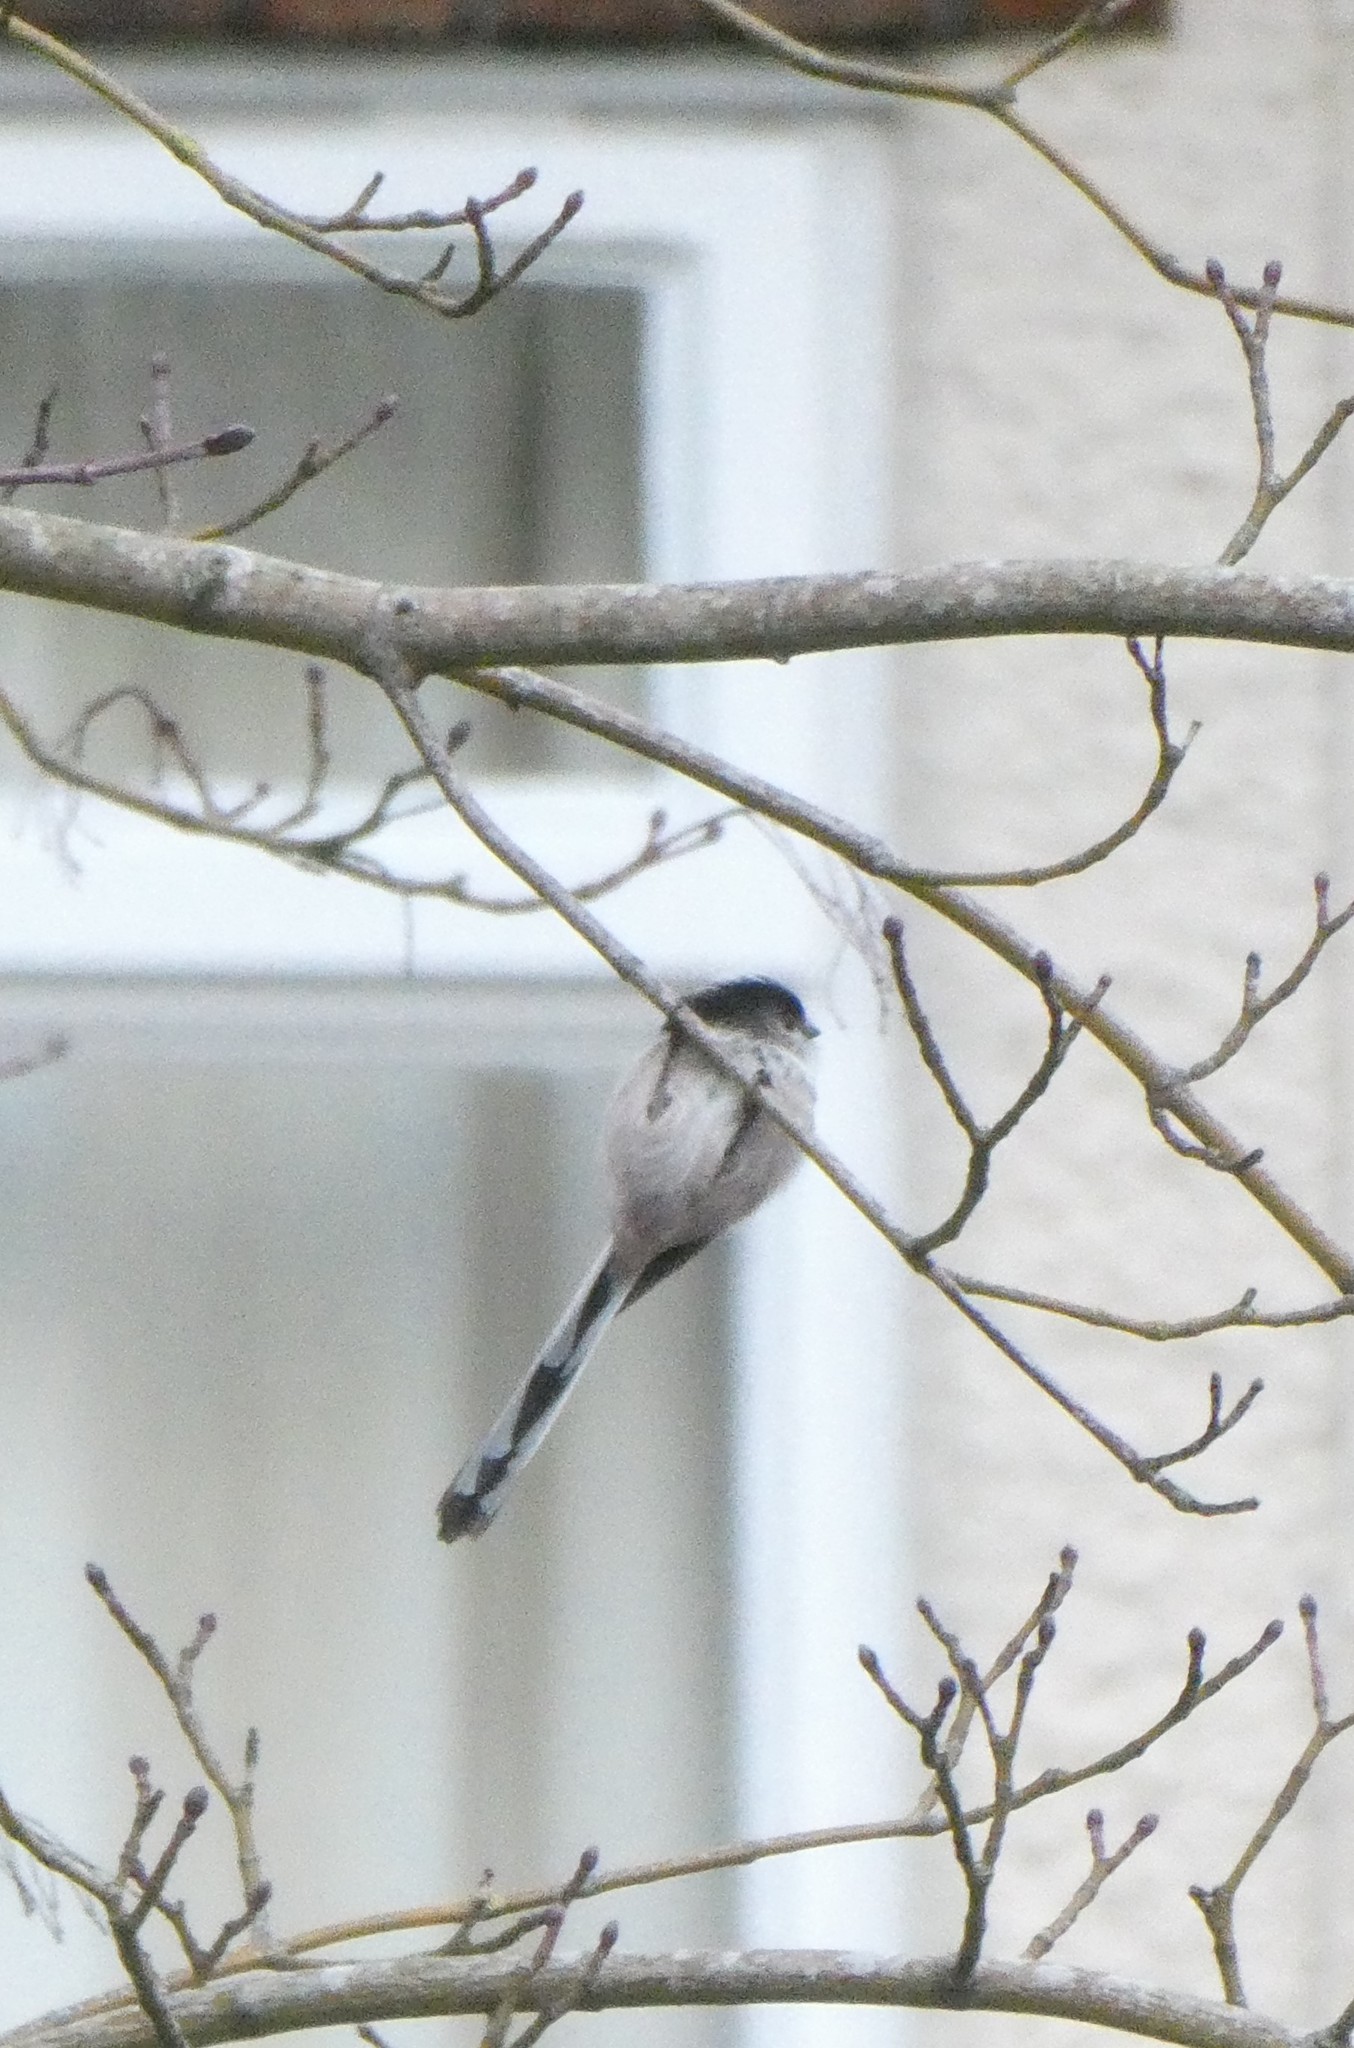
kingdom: Animalia
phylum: Chordata
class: Aves
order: Passeriformes
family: Aegithalidae
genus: Aegithalos
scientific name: Aegithalos caudatus
